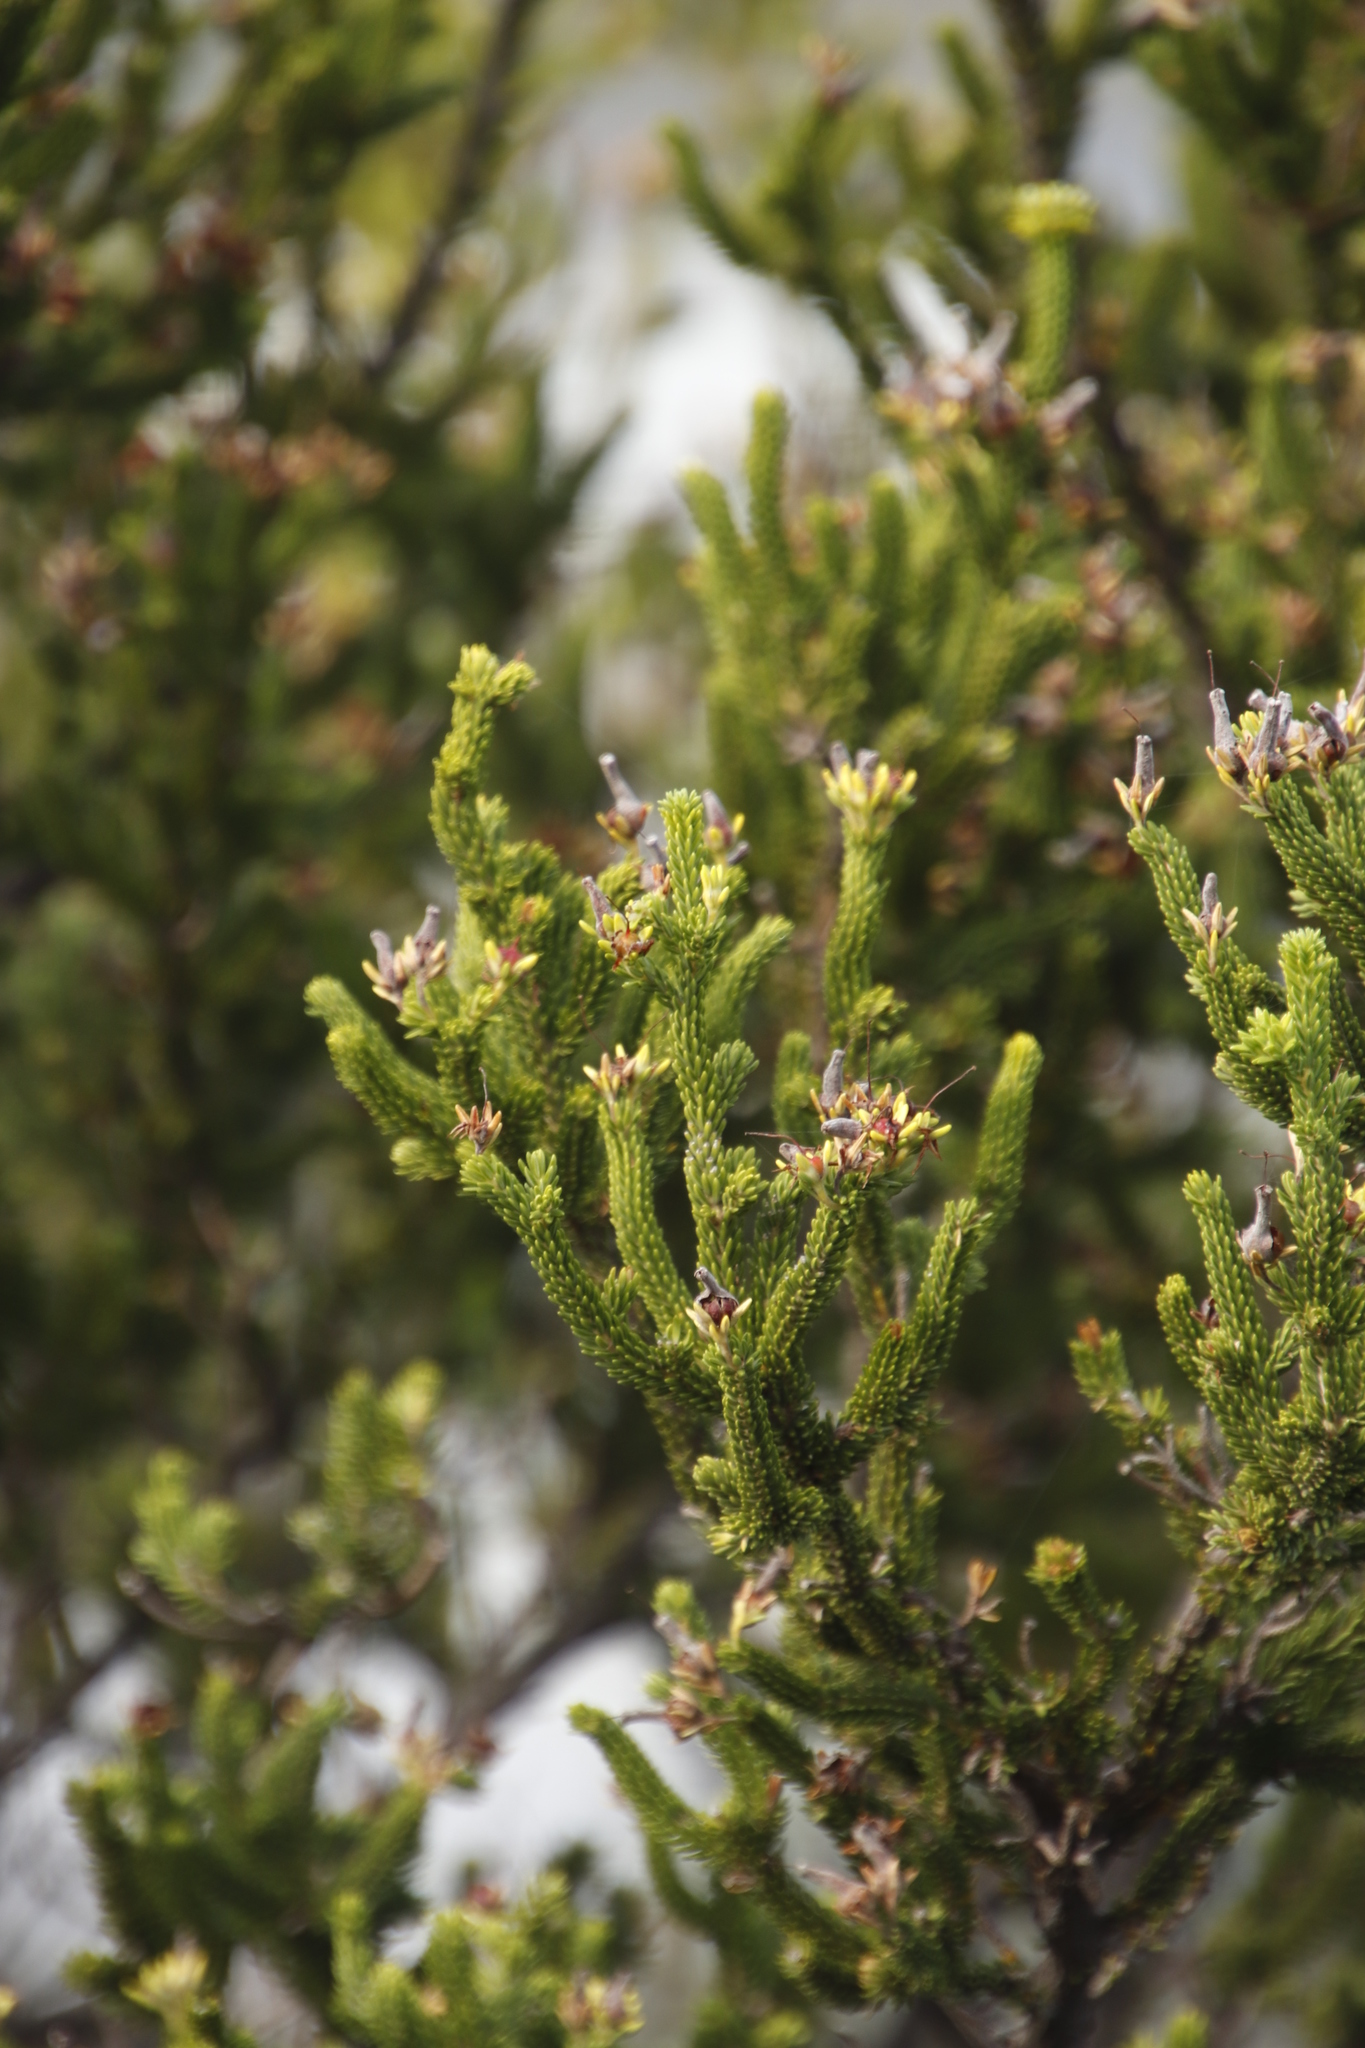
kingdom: Plantae
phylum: Tracheophyta
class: Magnoliopsida
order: Ericales
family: Ericaceae
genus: Erica
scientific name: Erica brachialis
